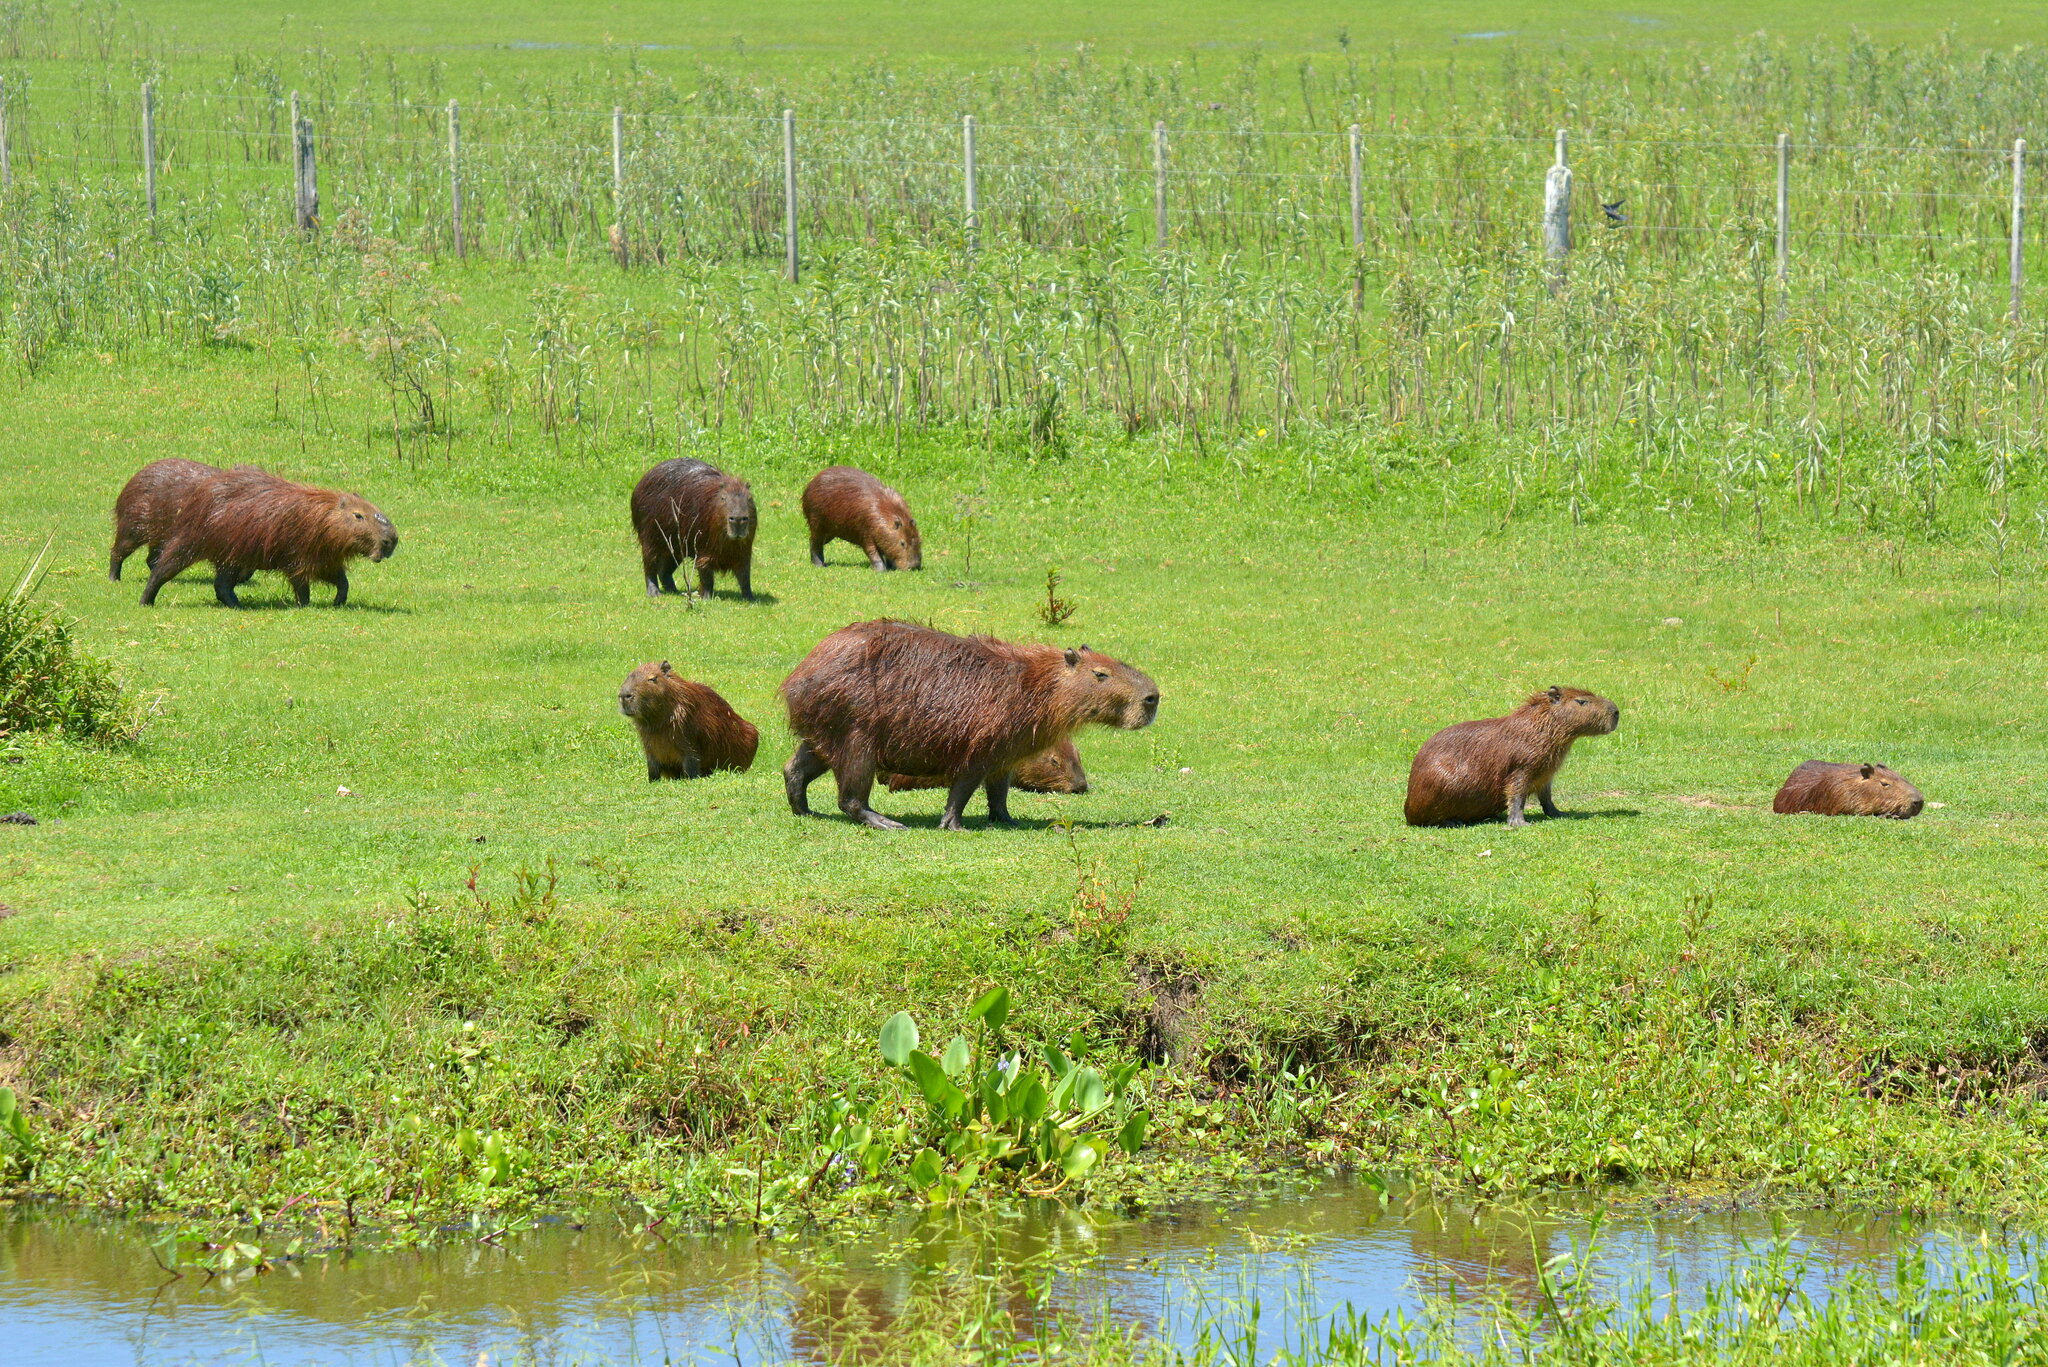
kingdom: Animalia
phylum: Chordata
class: Mammalia
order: Rodentia
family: Caviidae
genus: Hydrochoerus
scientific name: Hydrochoerus hydrochaeris
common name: Capybara
